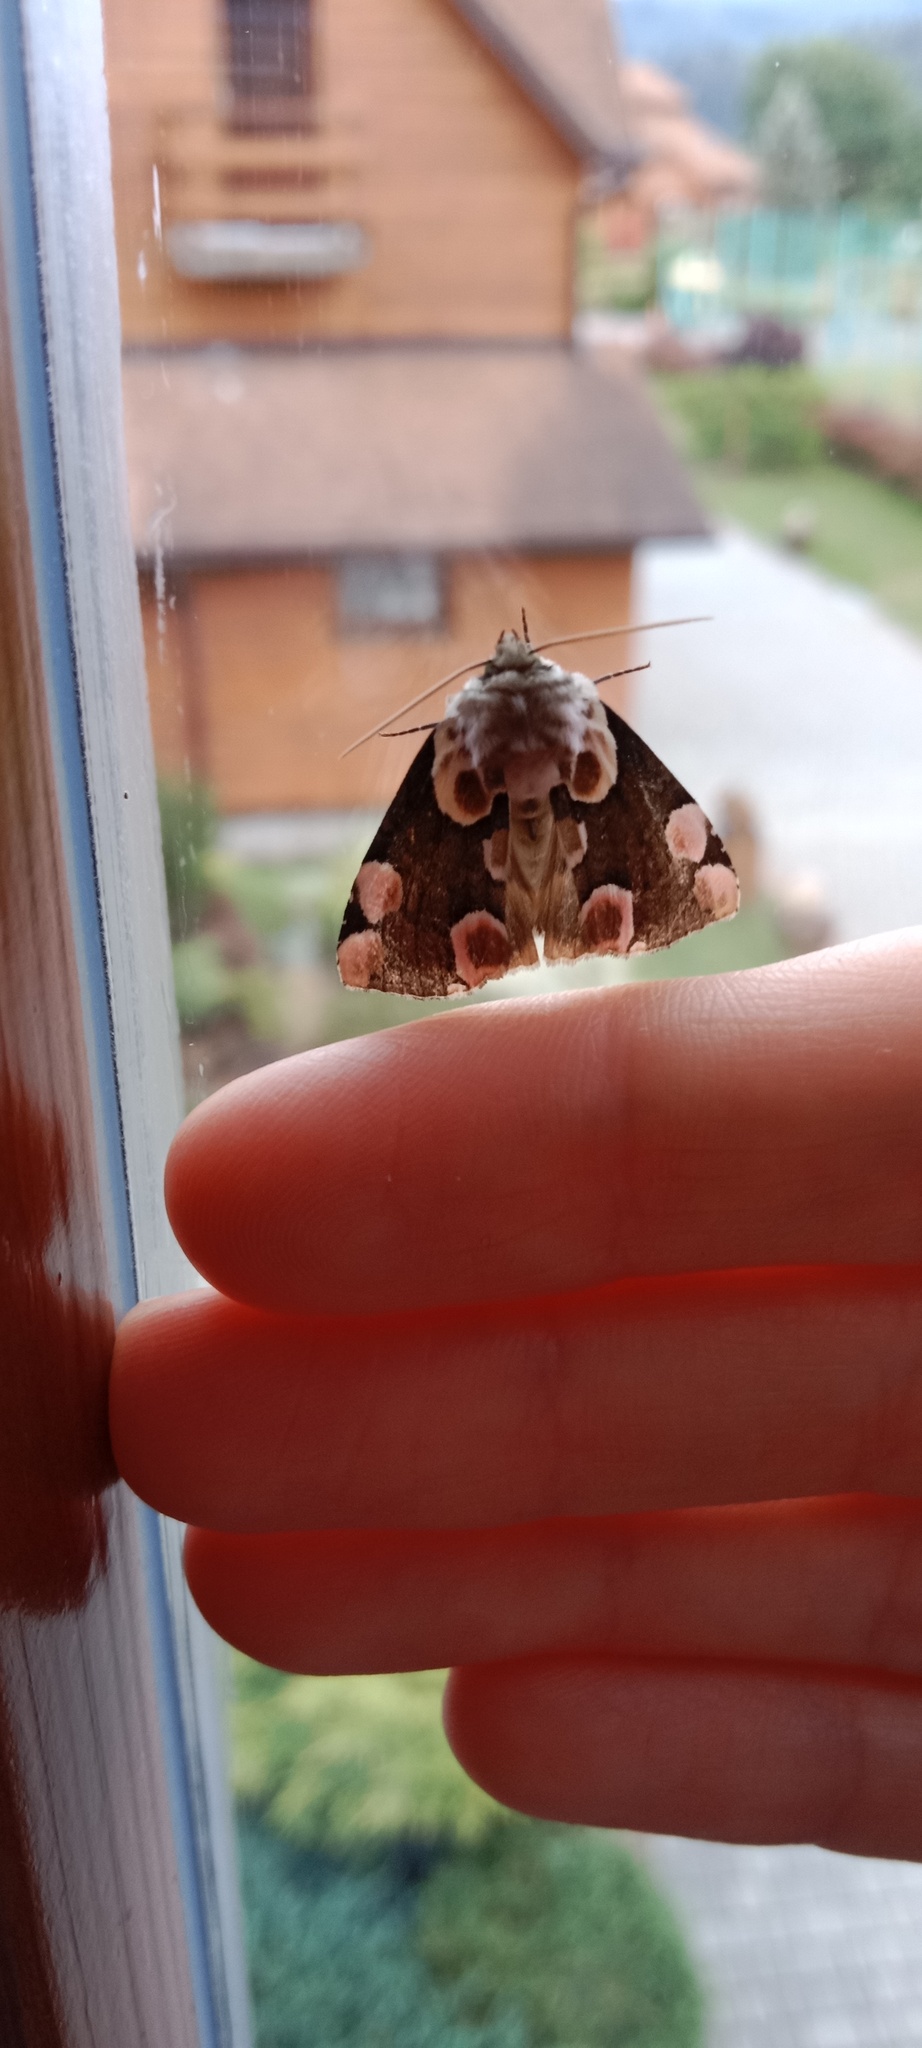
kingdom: Animalia
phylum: Arthropoda
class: Insecta
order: Lepidoptera
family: Drepanidae
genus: Thyatira
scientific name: Thyatira batis
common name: Peach blossom
